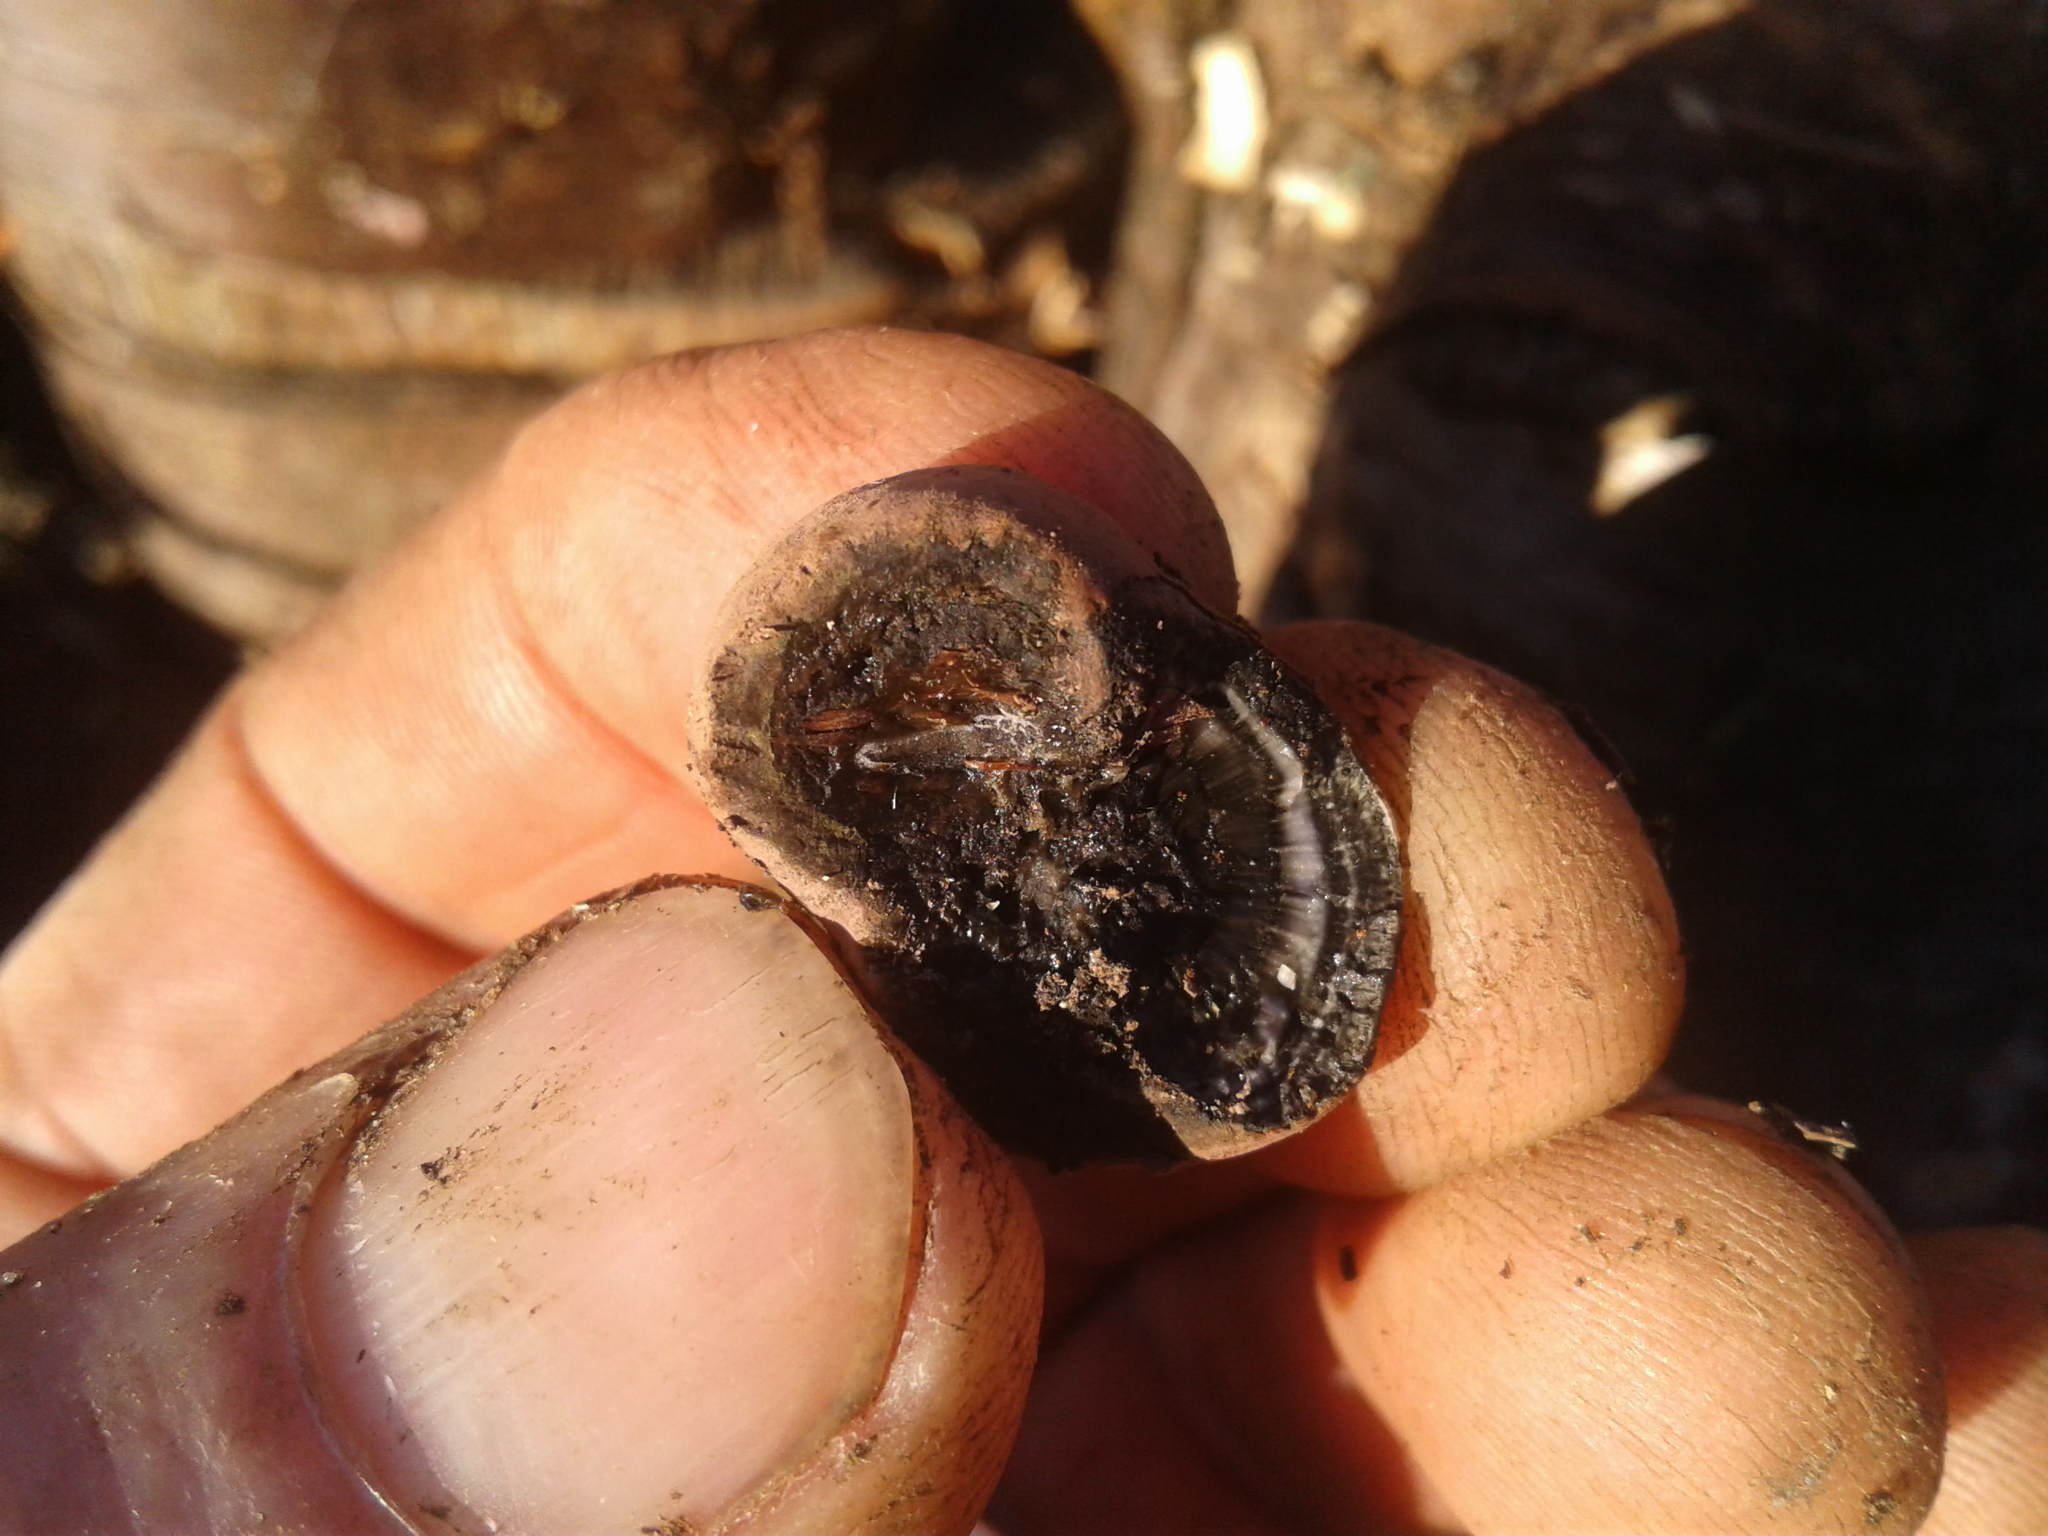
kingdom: Fungi
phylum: Ascomycota
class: Sordariomycetes
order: Xylariales
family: Hypoxylaceae
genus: Daldinia
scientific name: Daldinia
